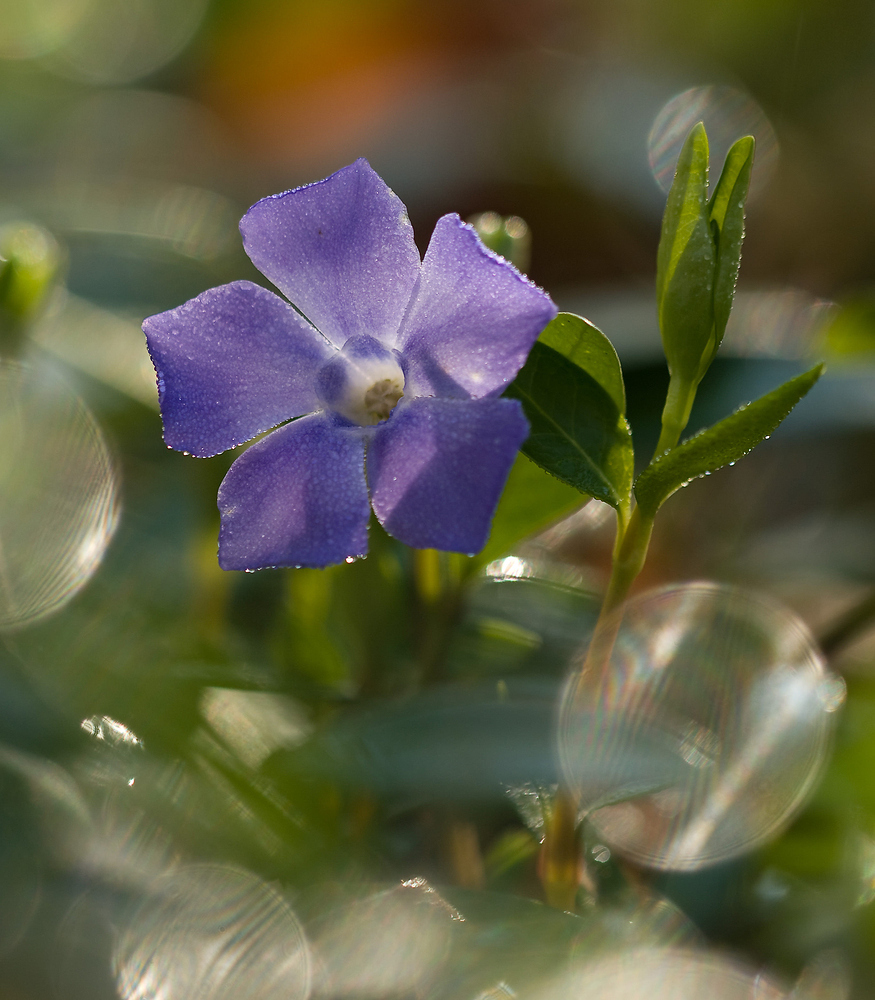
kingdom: Plantae
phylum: Tracheophyta
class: Magnoliopsida
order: Gentianales
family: Apocynaceae
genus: Vinca
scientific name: Vinca minor
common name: Lesser periwinkle
